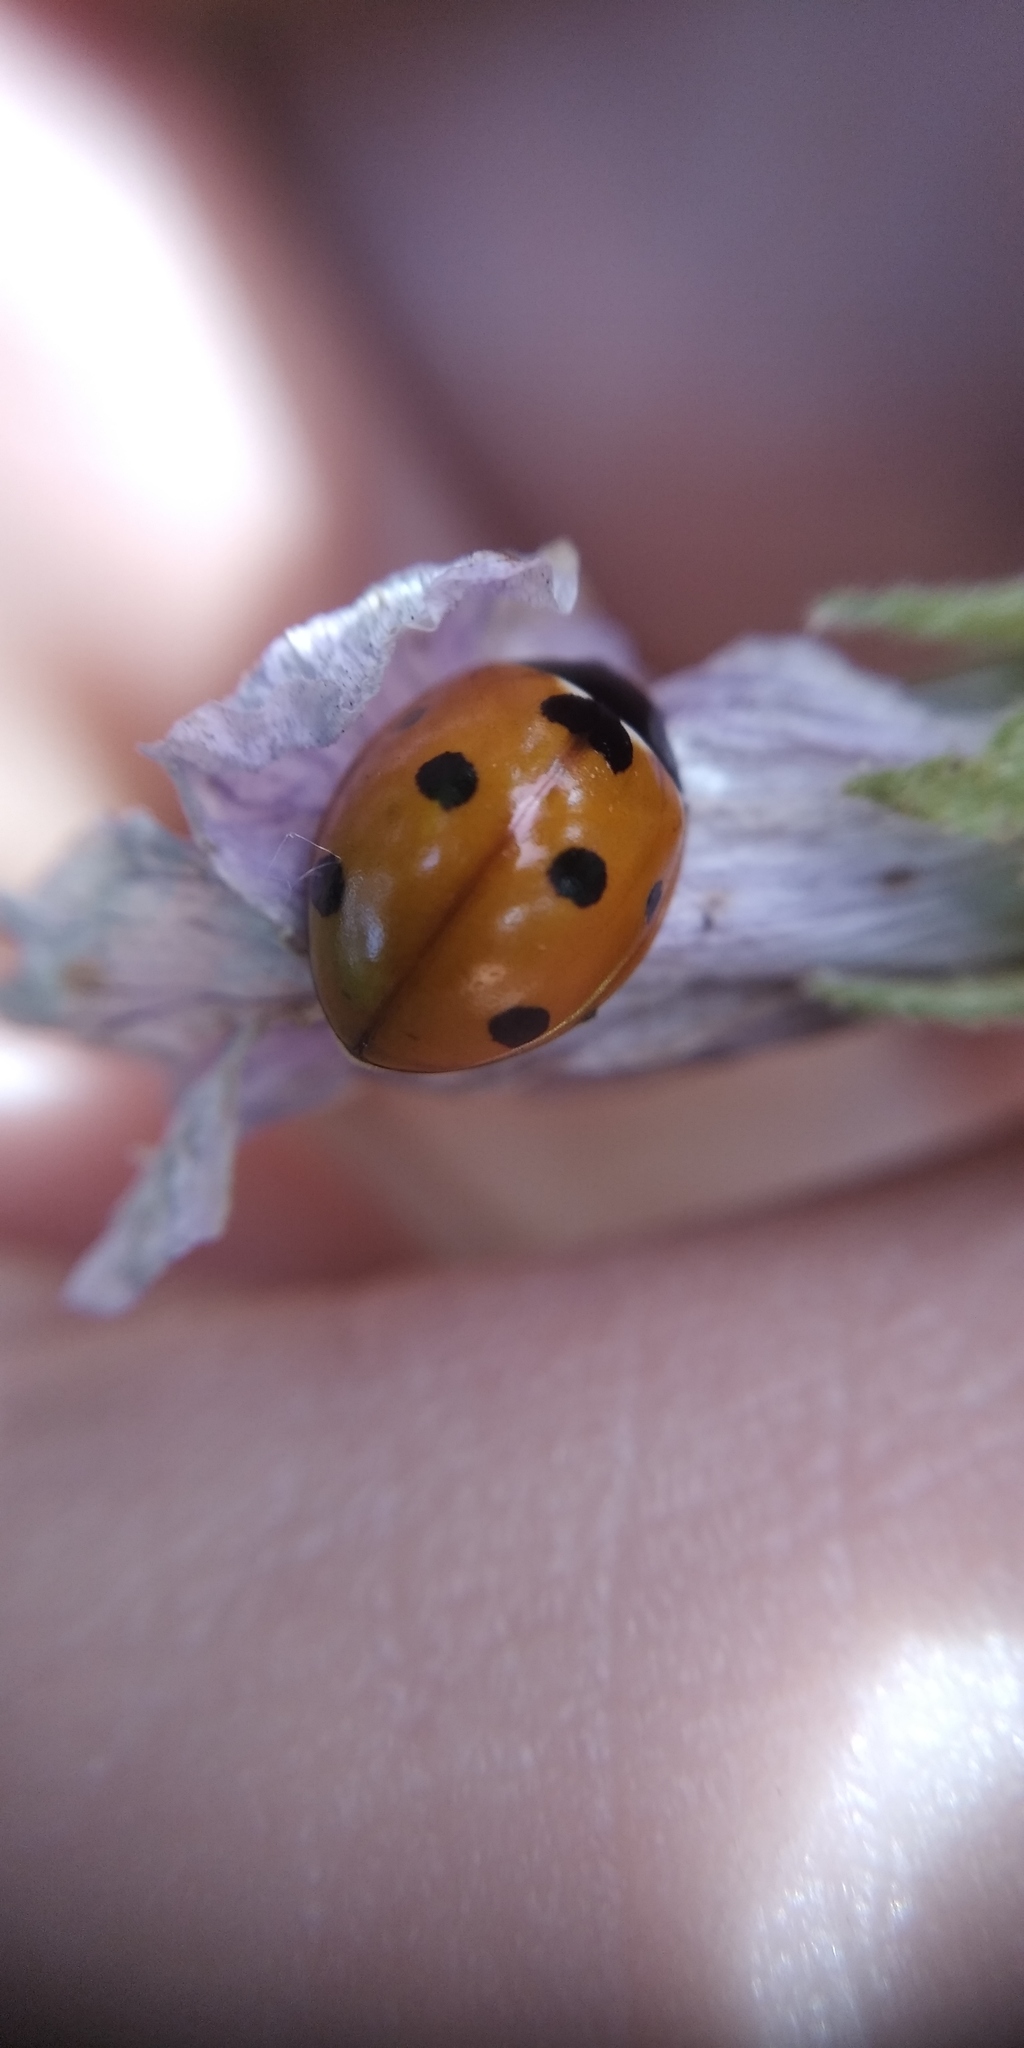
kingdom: Animalia
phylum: Arthropoda
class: Insecta
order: Coleoptera
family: Coccinellidae
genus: Coccinella
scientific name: Coccinella septempunctata
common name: Sevenspotted lady beetle
